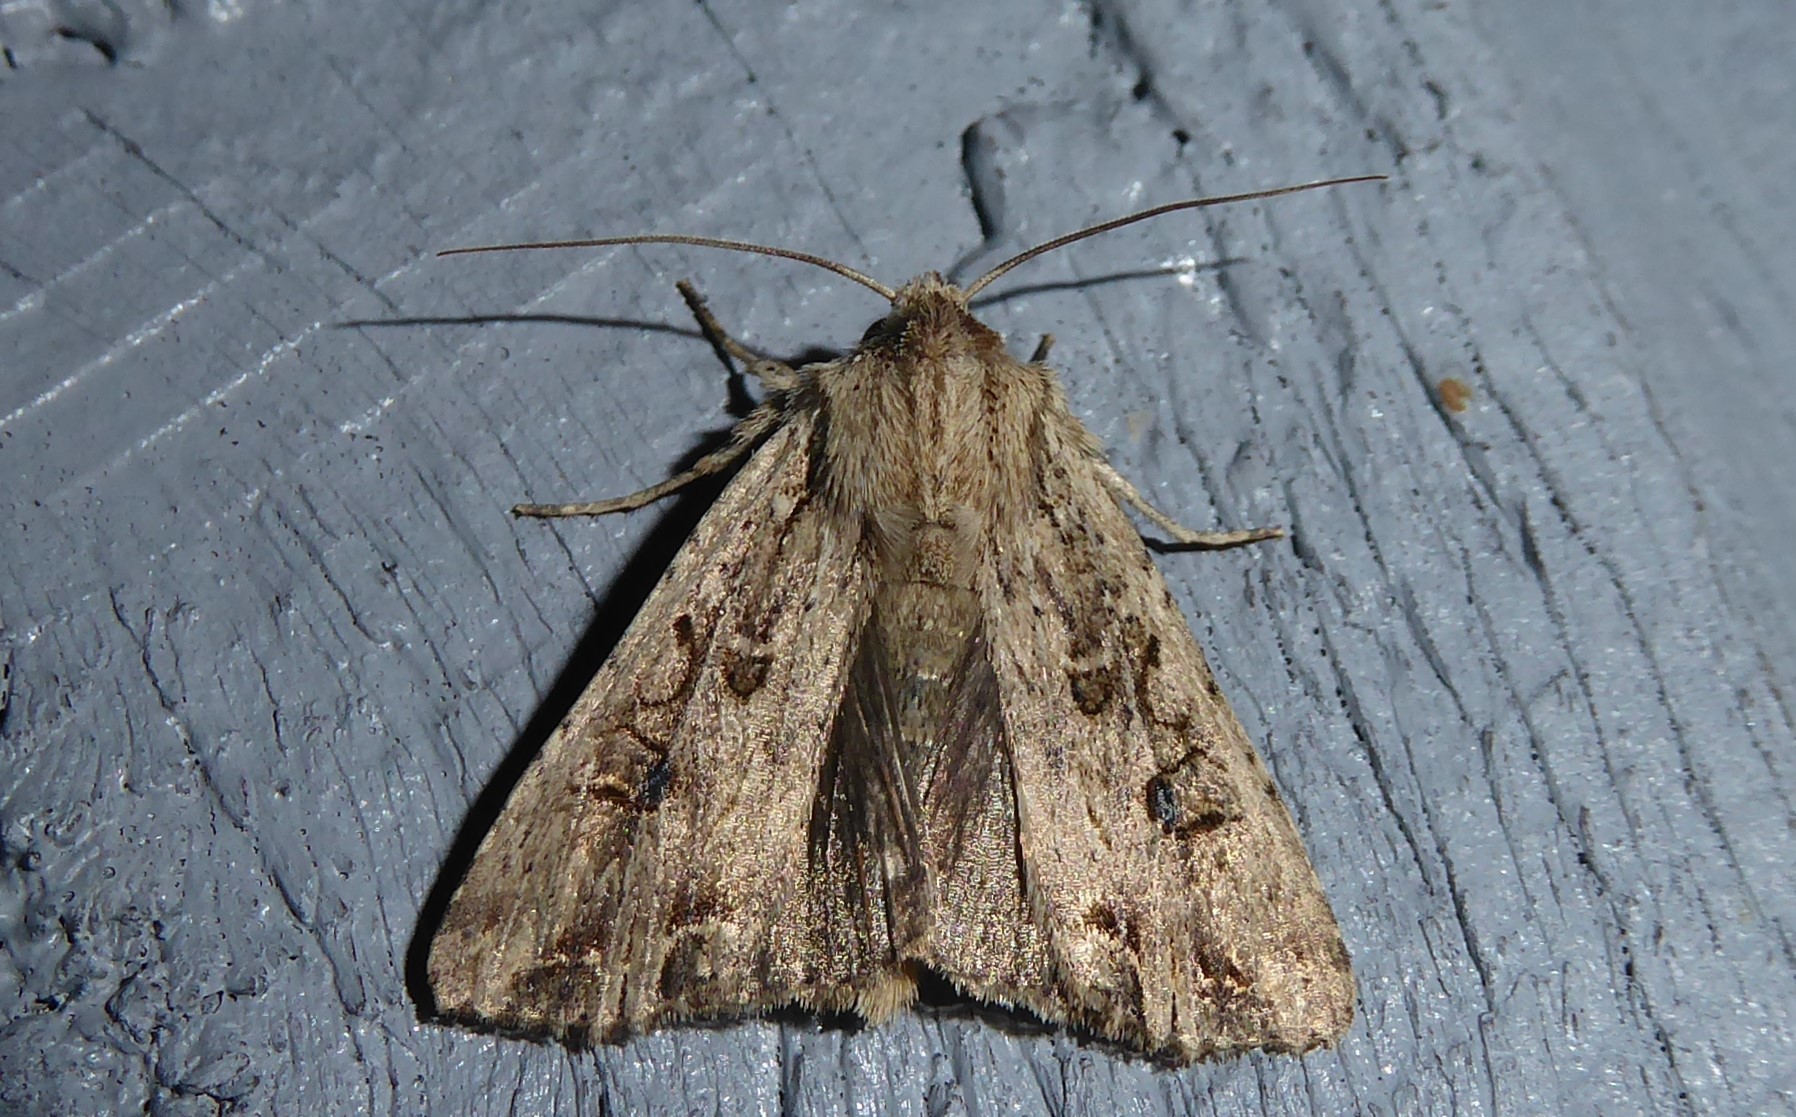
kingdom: Animalia
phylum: Arthropoda
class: Insecta
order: Lepidoptera
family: Noctuidae
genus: Ichneutica
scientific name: Ichneutica lignana
